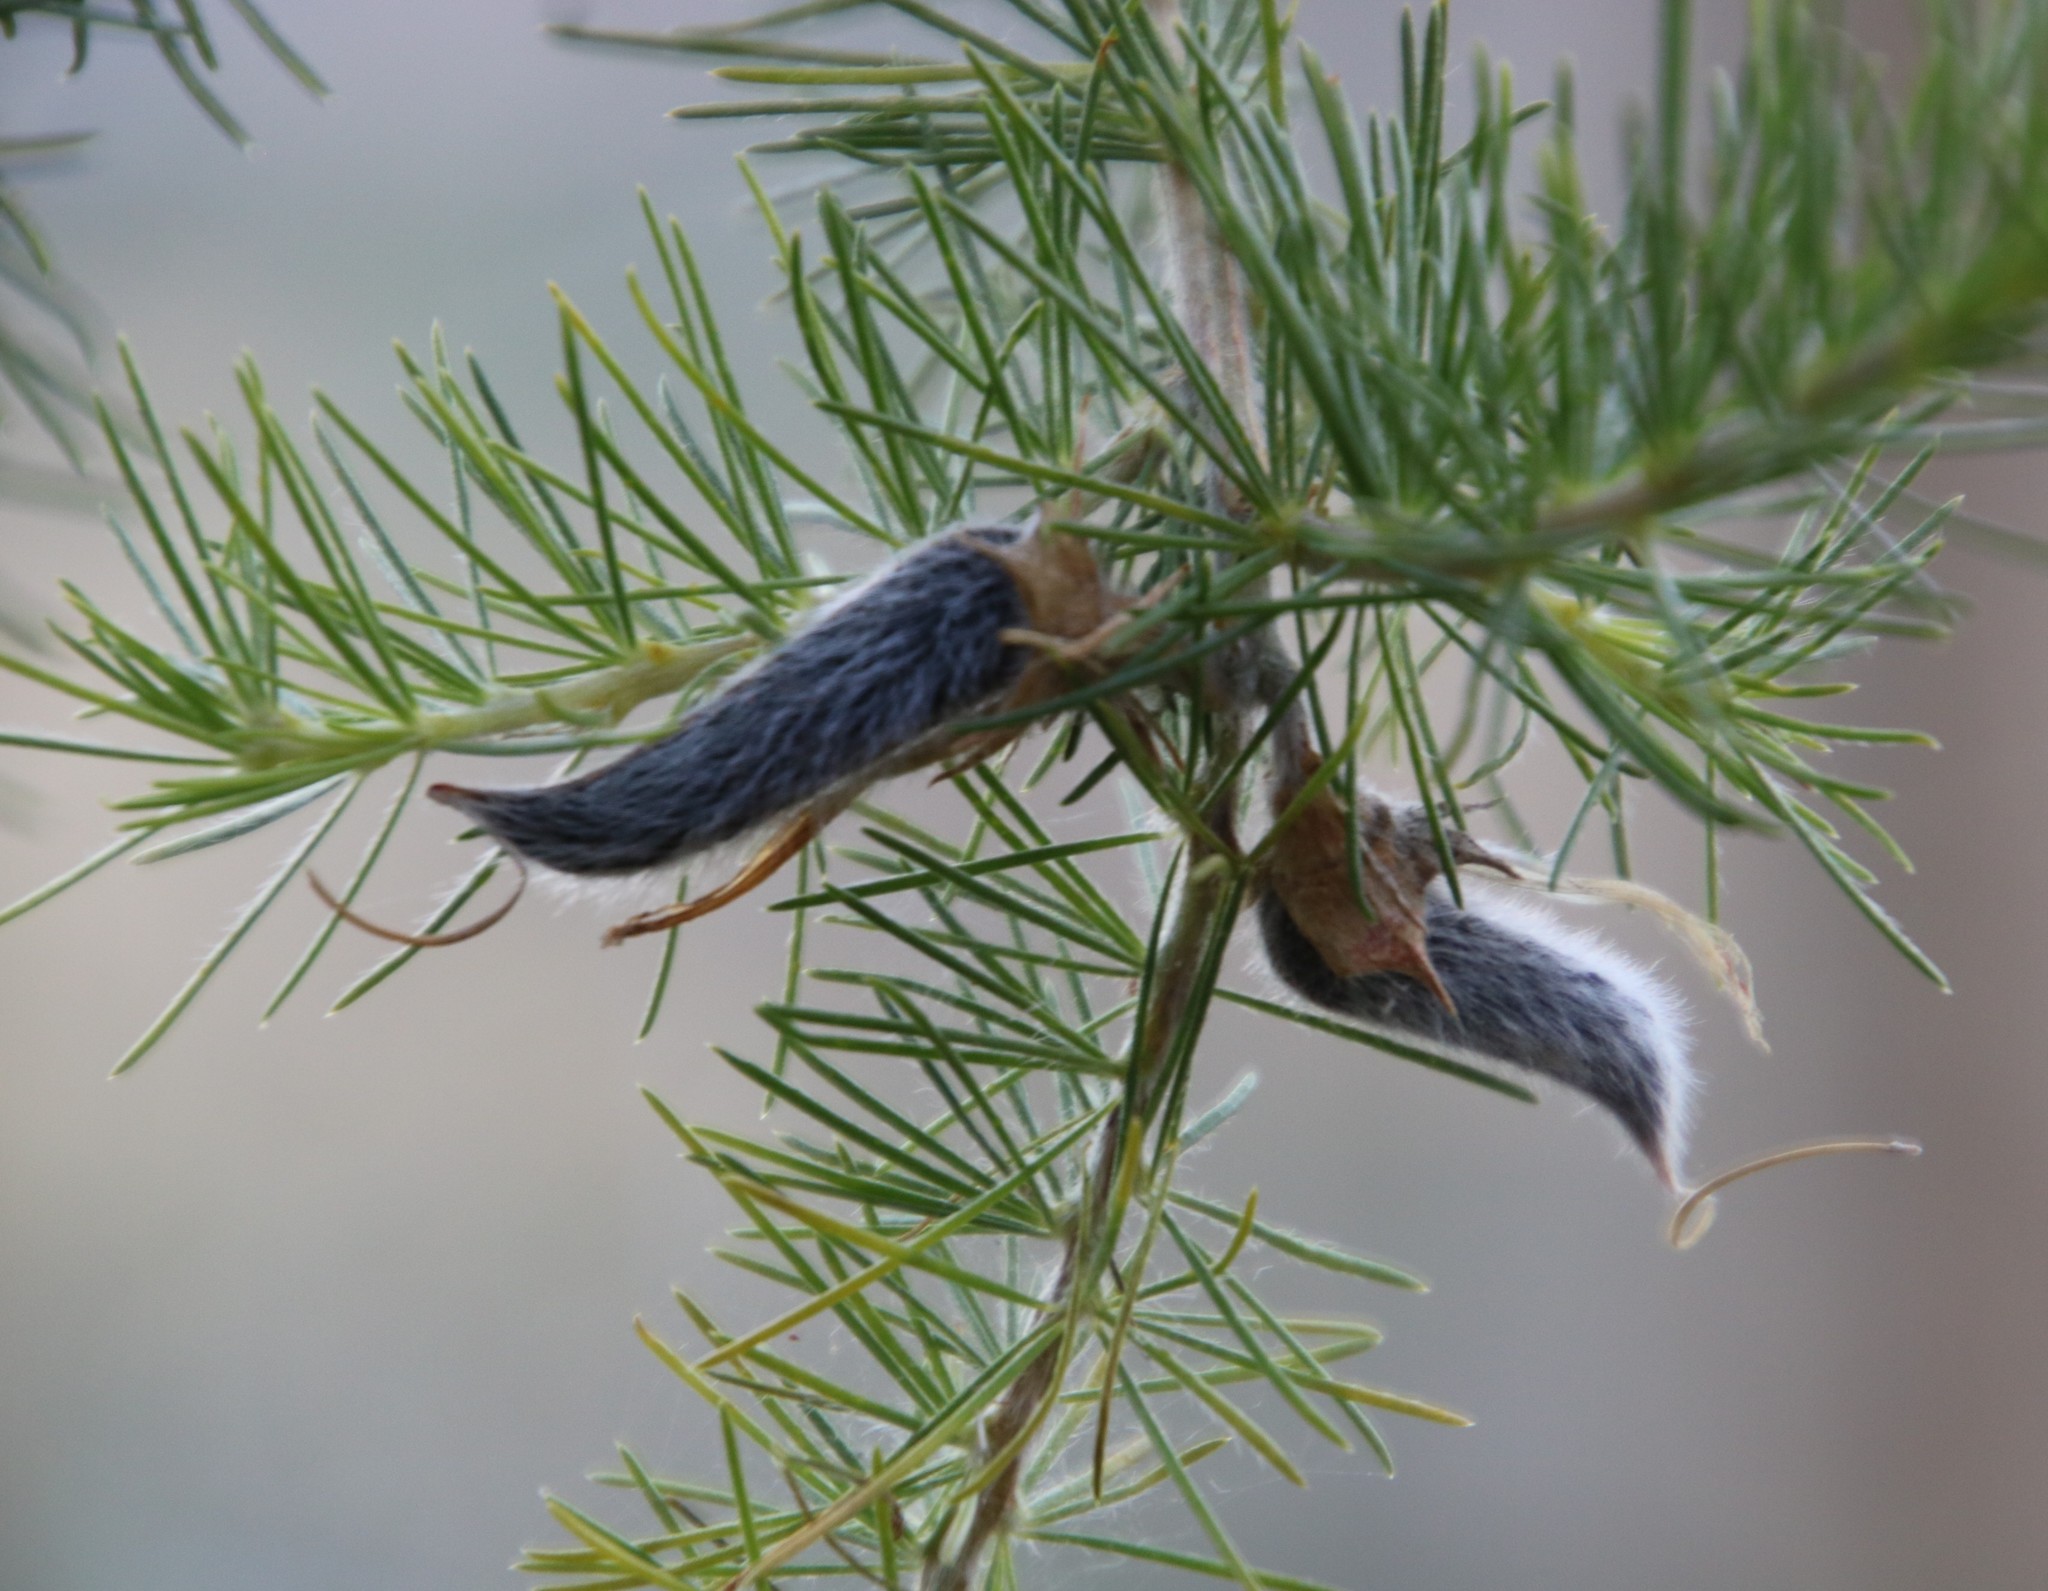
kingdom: Plantae
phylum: Tracheophyta
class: Magnoliopsida
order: Fabales
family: Fabaceae
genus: Aspalathus
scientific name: Aspalathus macrantha
